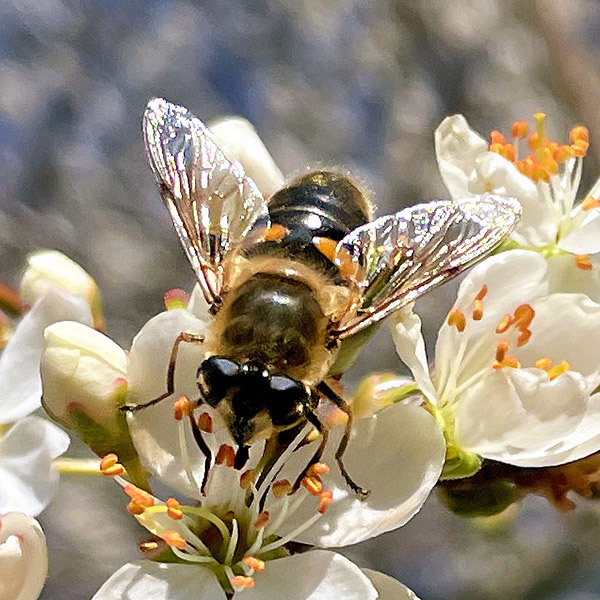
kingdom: Animalia
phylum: Arthropoda
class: Insecta
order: Diptera
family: Syrphidae
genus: Eristalis
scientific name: Eristalis tenax
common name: Drone fly
